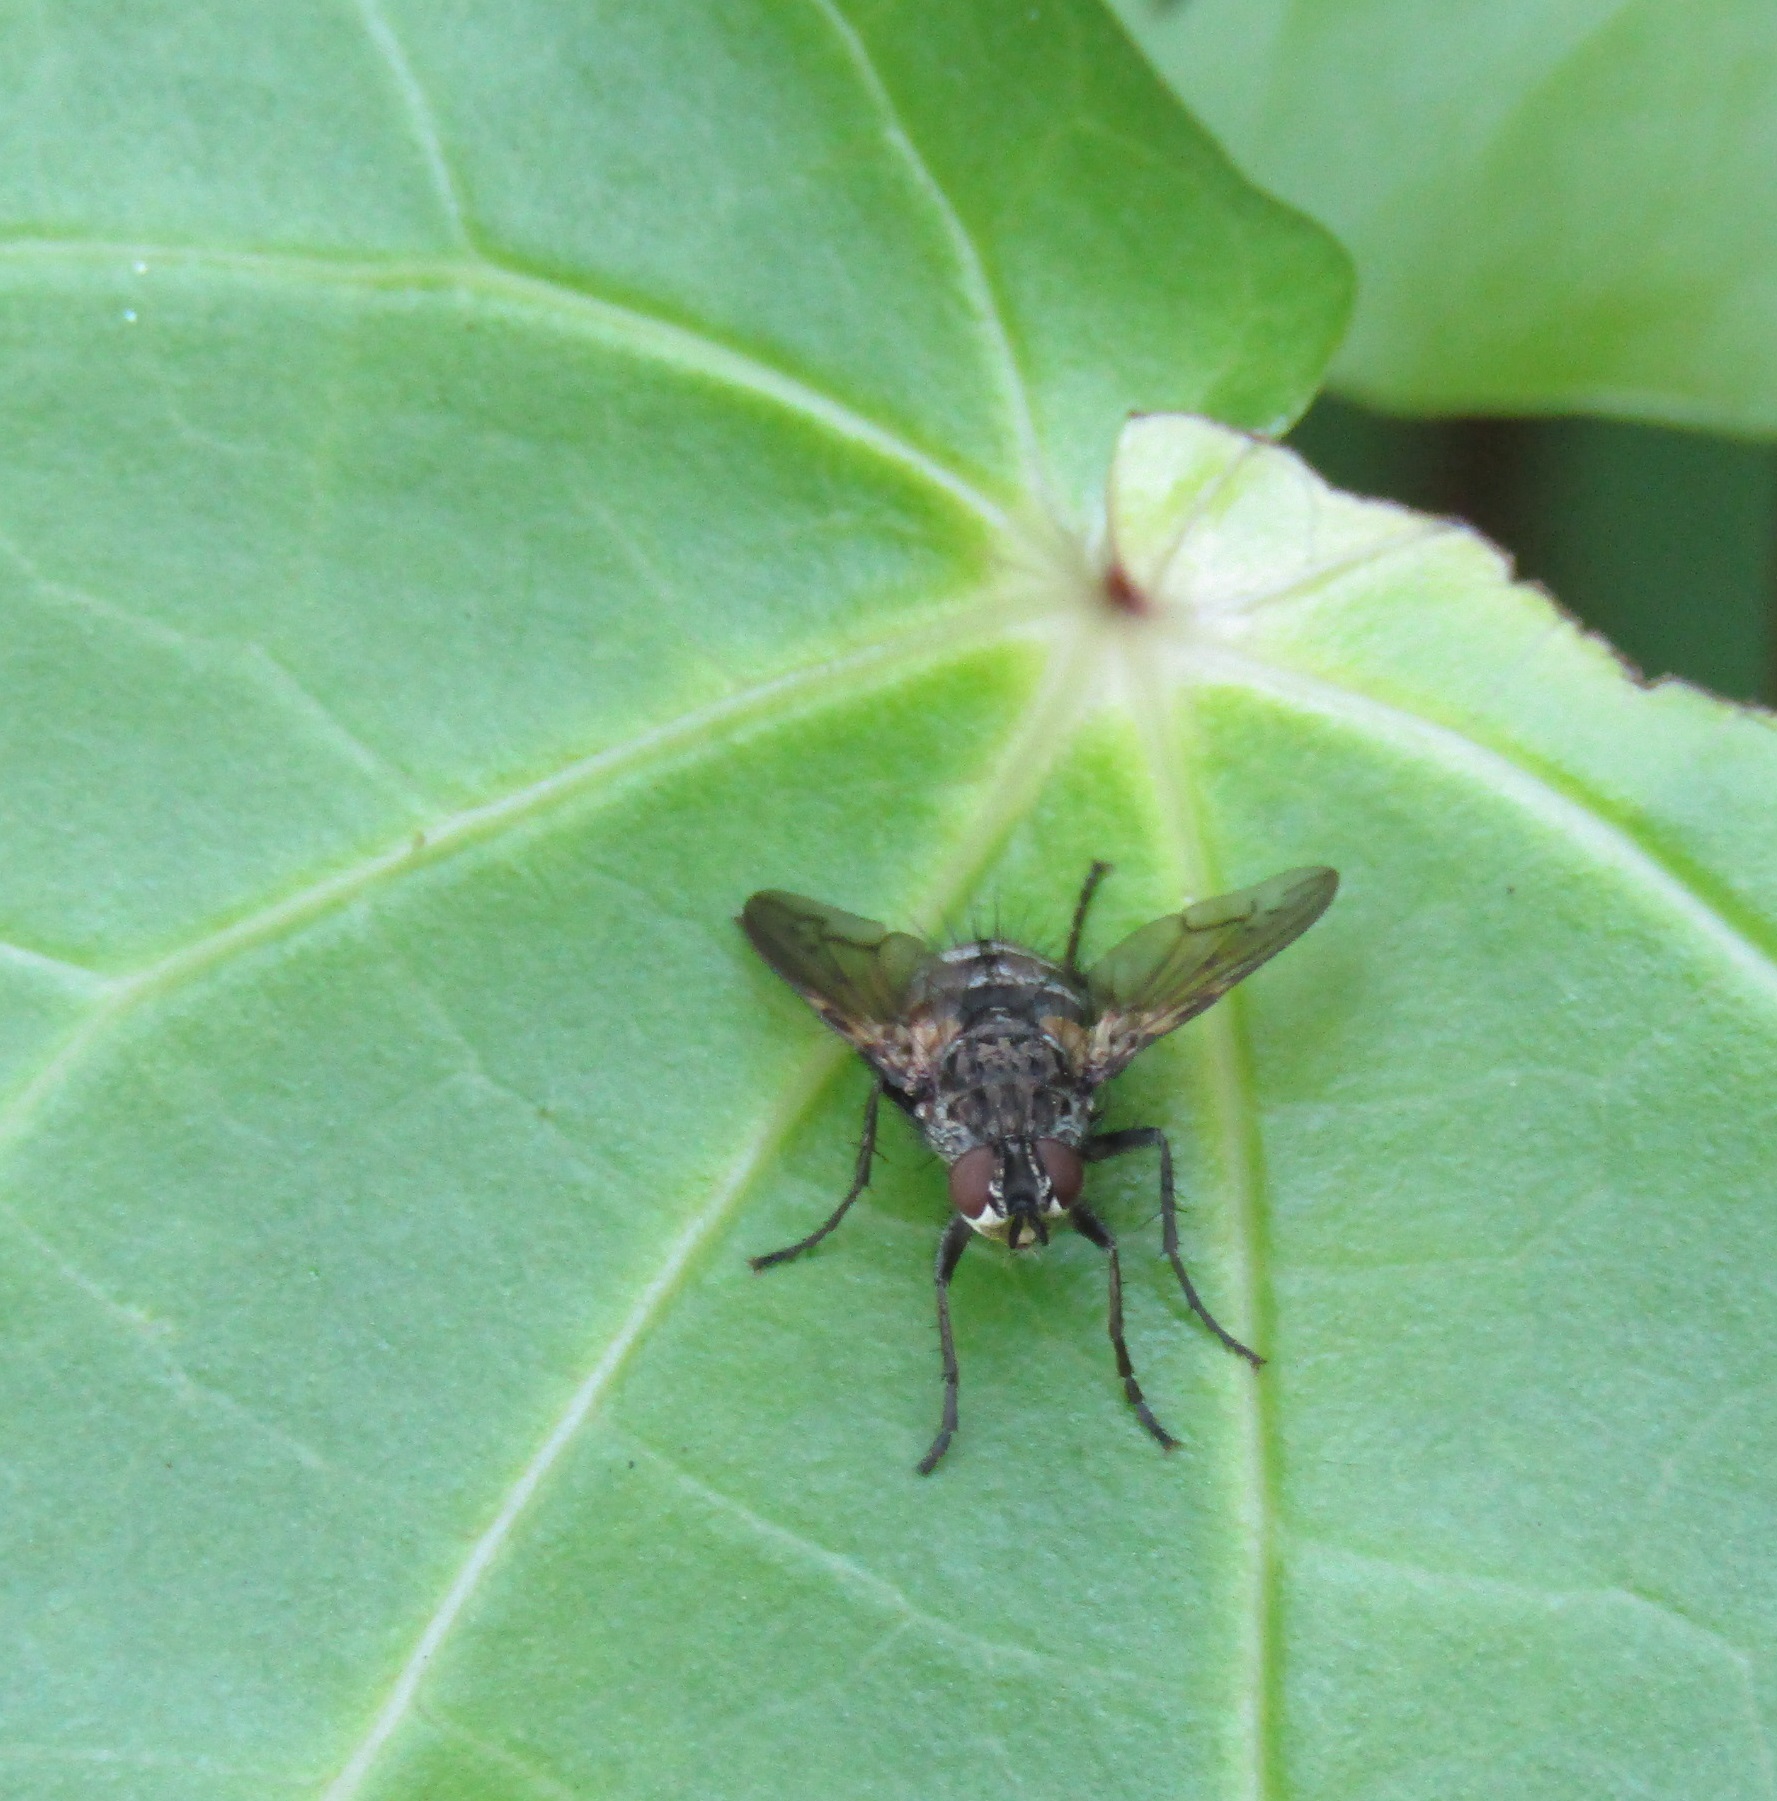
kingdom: Animalia
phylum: Arthropoda
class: Insecta
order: Diptera
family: Tachinidae
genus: Mallochomacquartia
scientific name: Mallochomacquartia vexata
